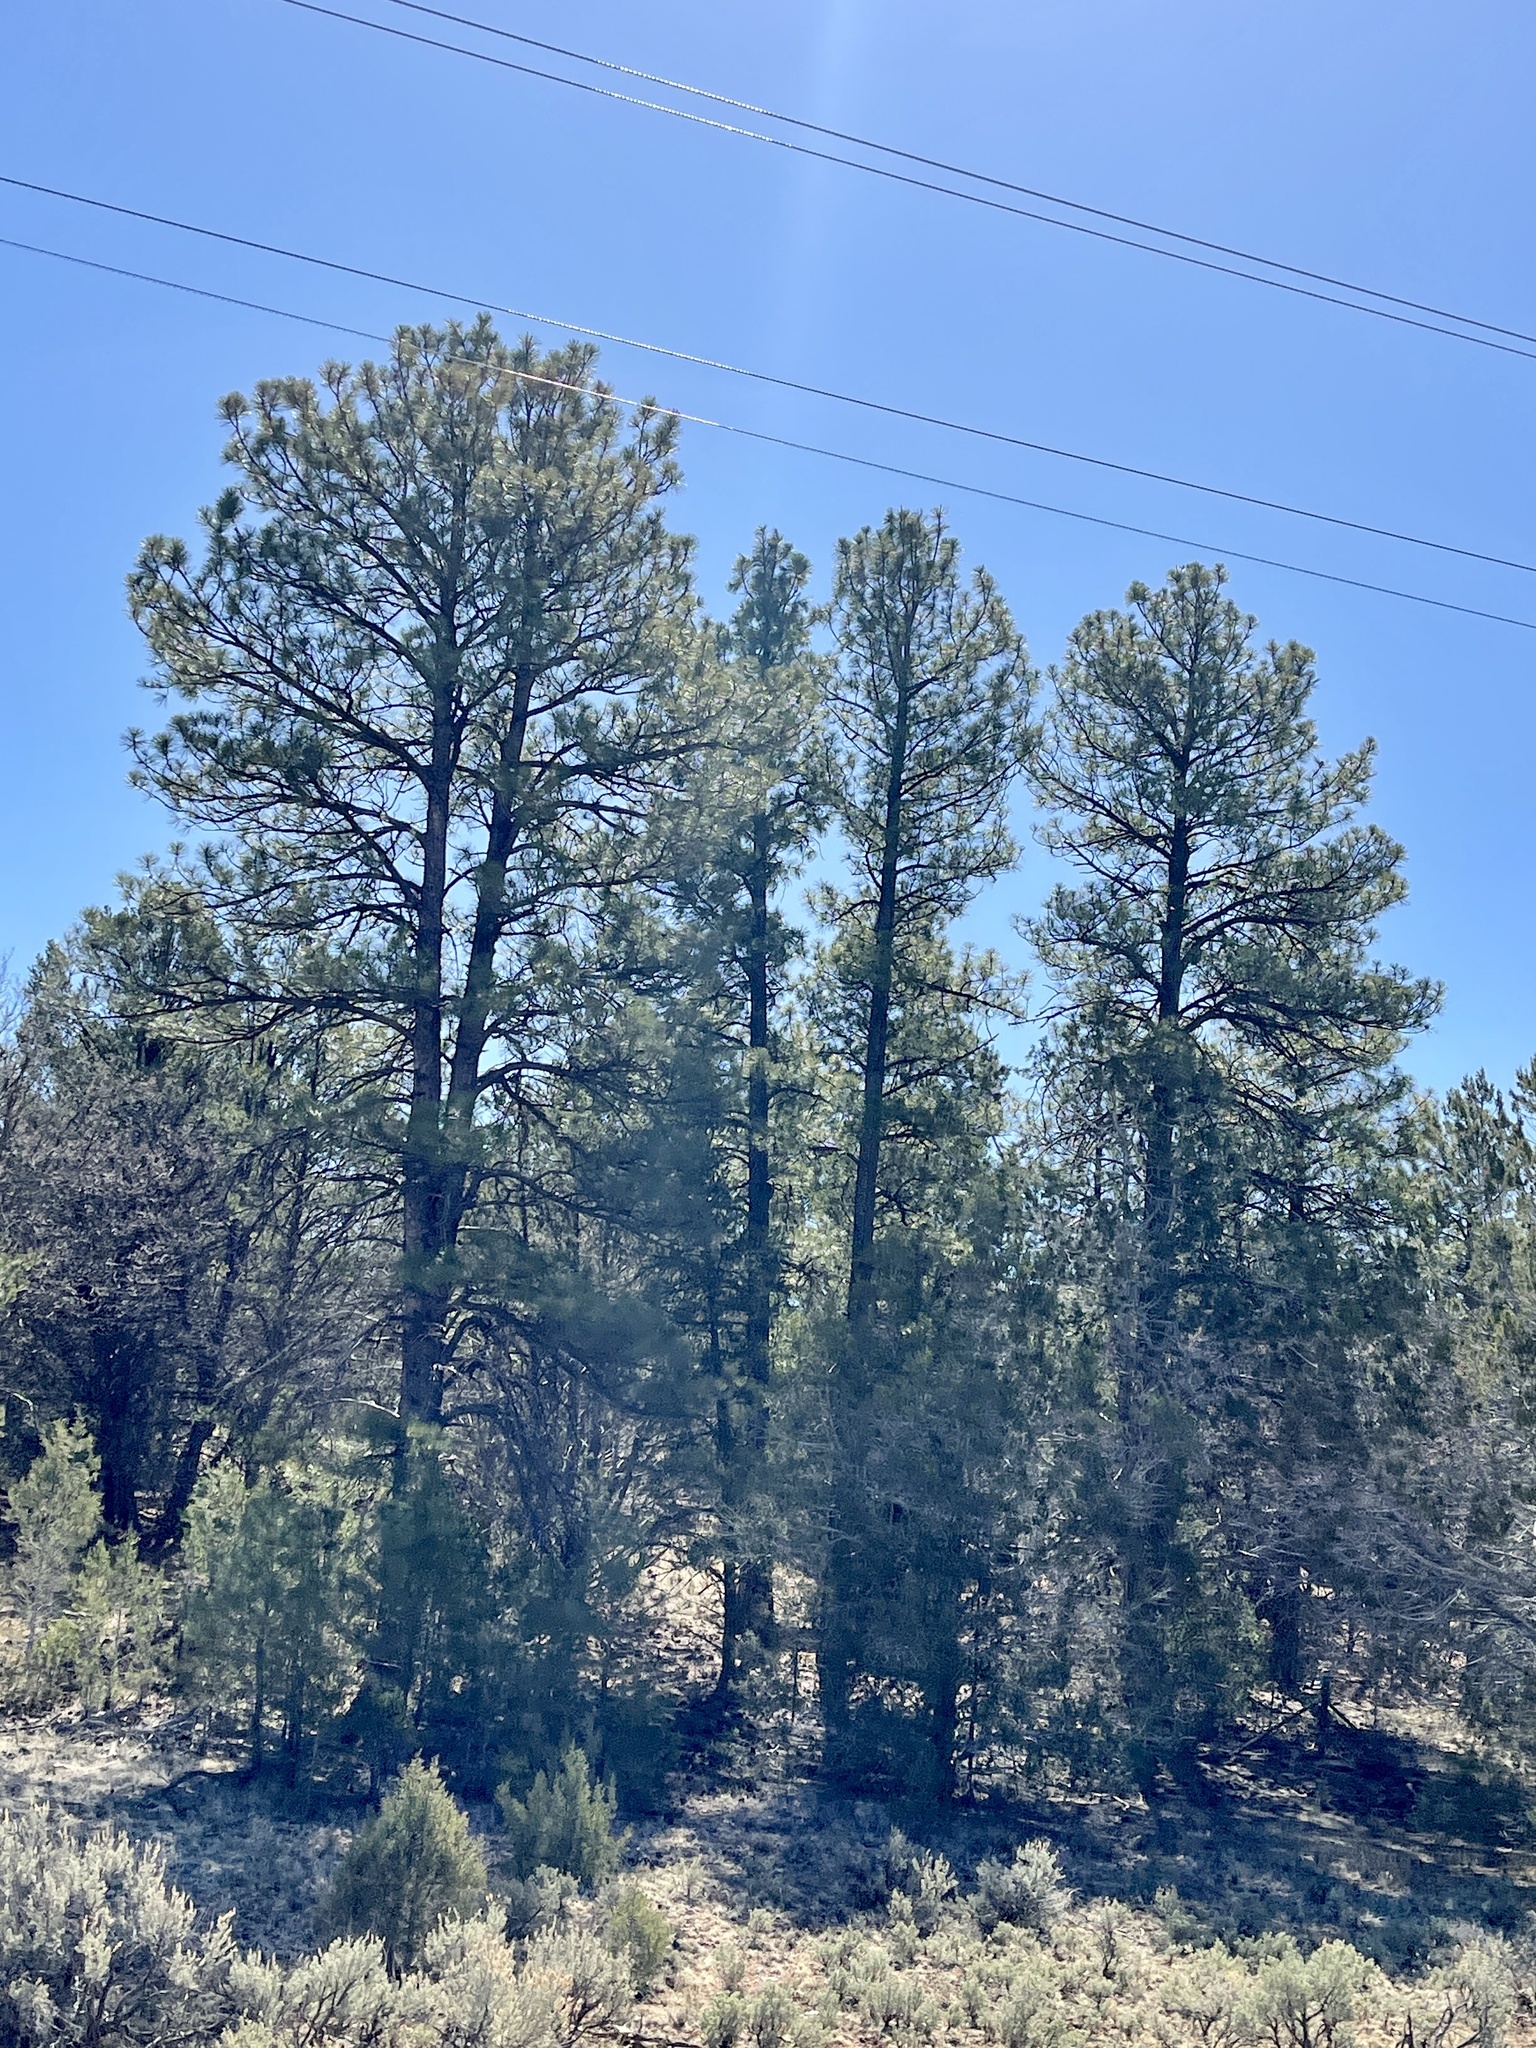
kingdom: Plantae
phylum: Tracheophyta
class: Pinopsida
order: Pinales
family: Pinaceae
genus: Pinus
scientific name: Pinus ponderosa
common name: Western yellow-pine
